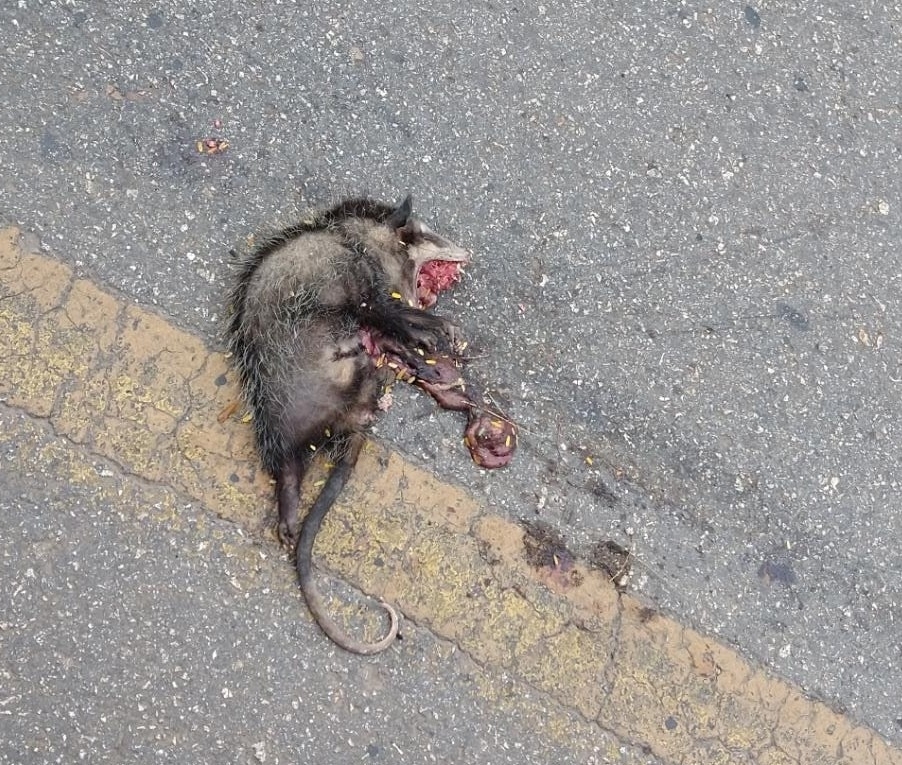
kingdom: Animalia
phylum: Chordata
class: Mammalia
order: Didelphimorphia
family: Didelphidae
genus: Didelphis
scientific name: Didelphis
